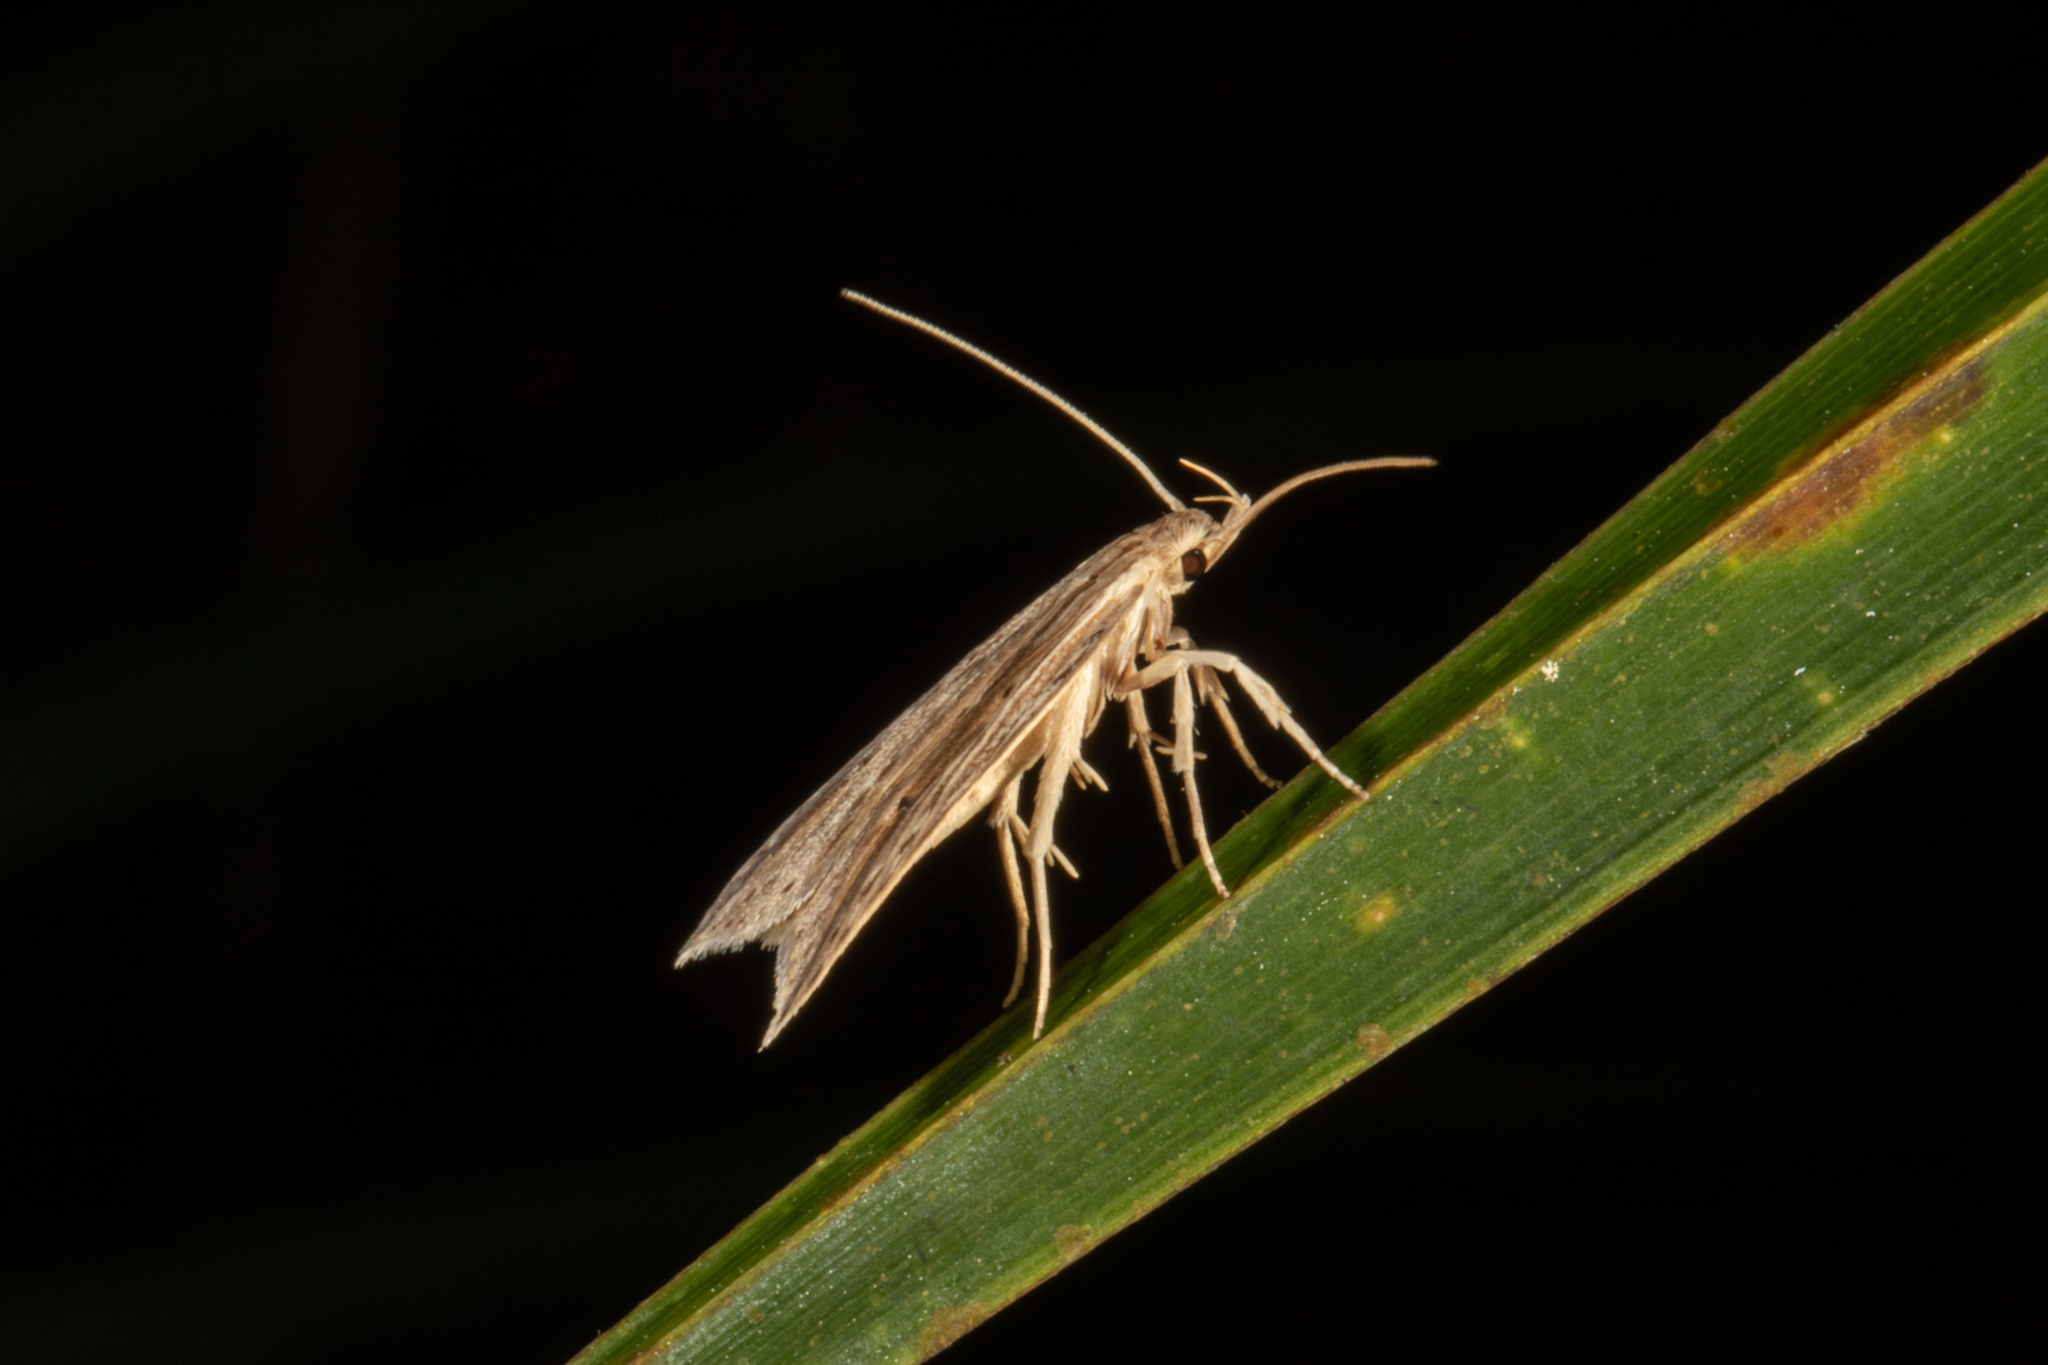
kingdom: Animalia
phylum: Arthropoda
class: Insecta
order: Lepidoptera
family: Xyloryctidae
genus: Donacostola
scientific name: Donacostola notabilis
